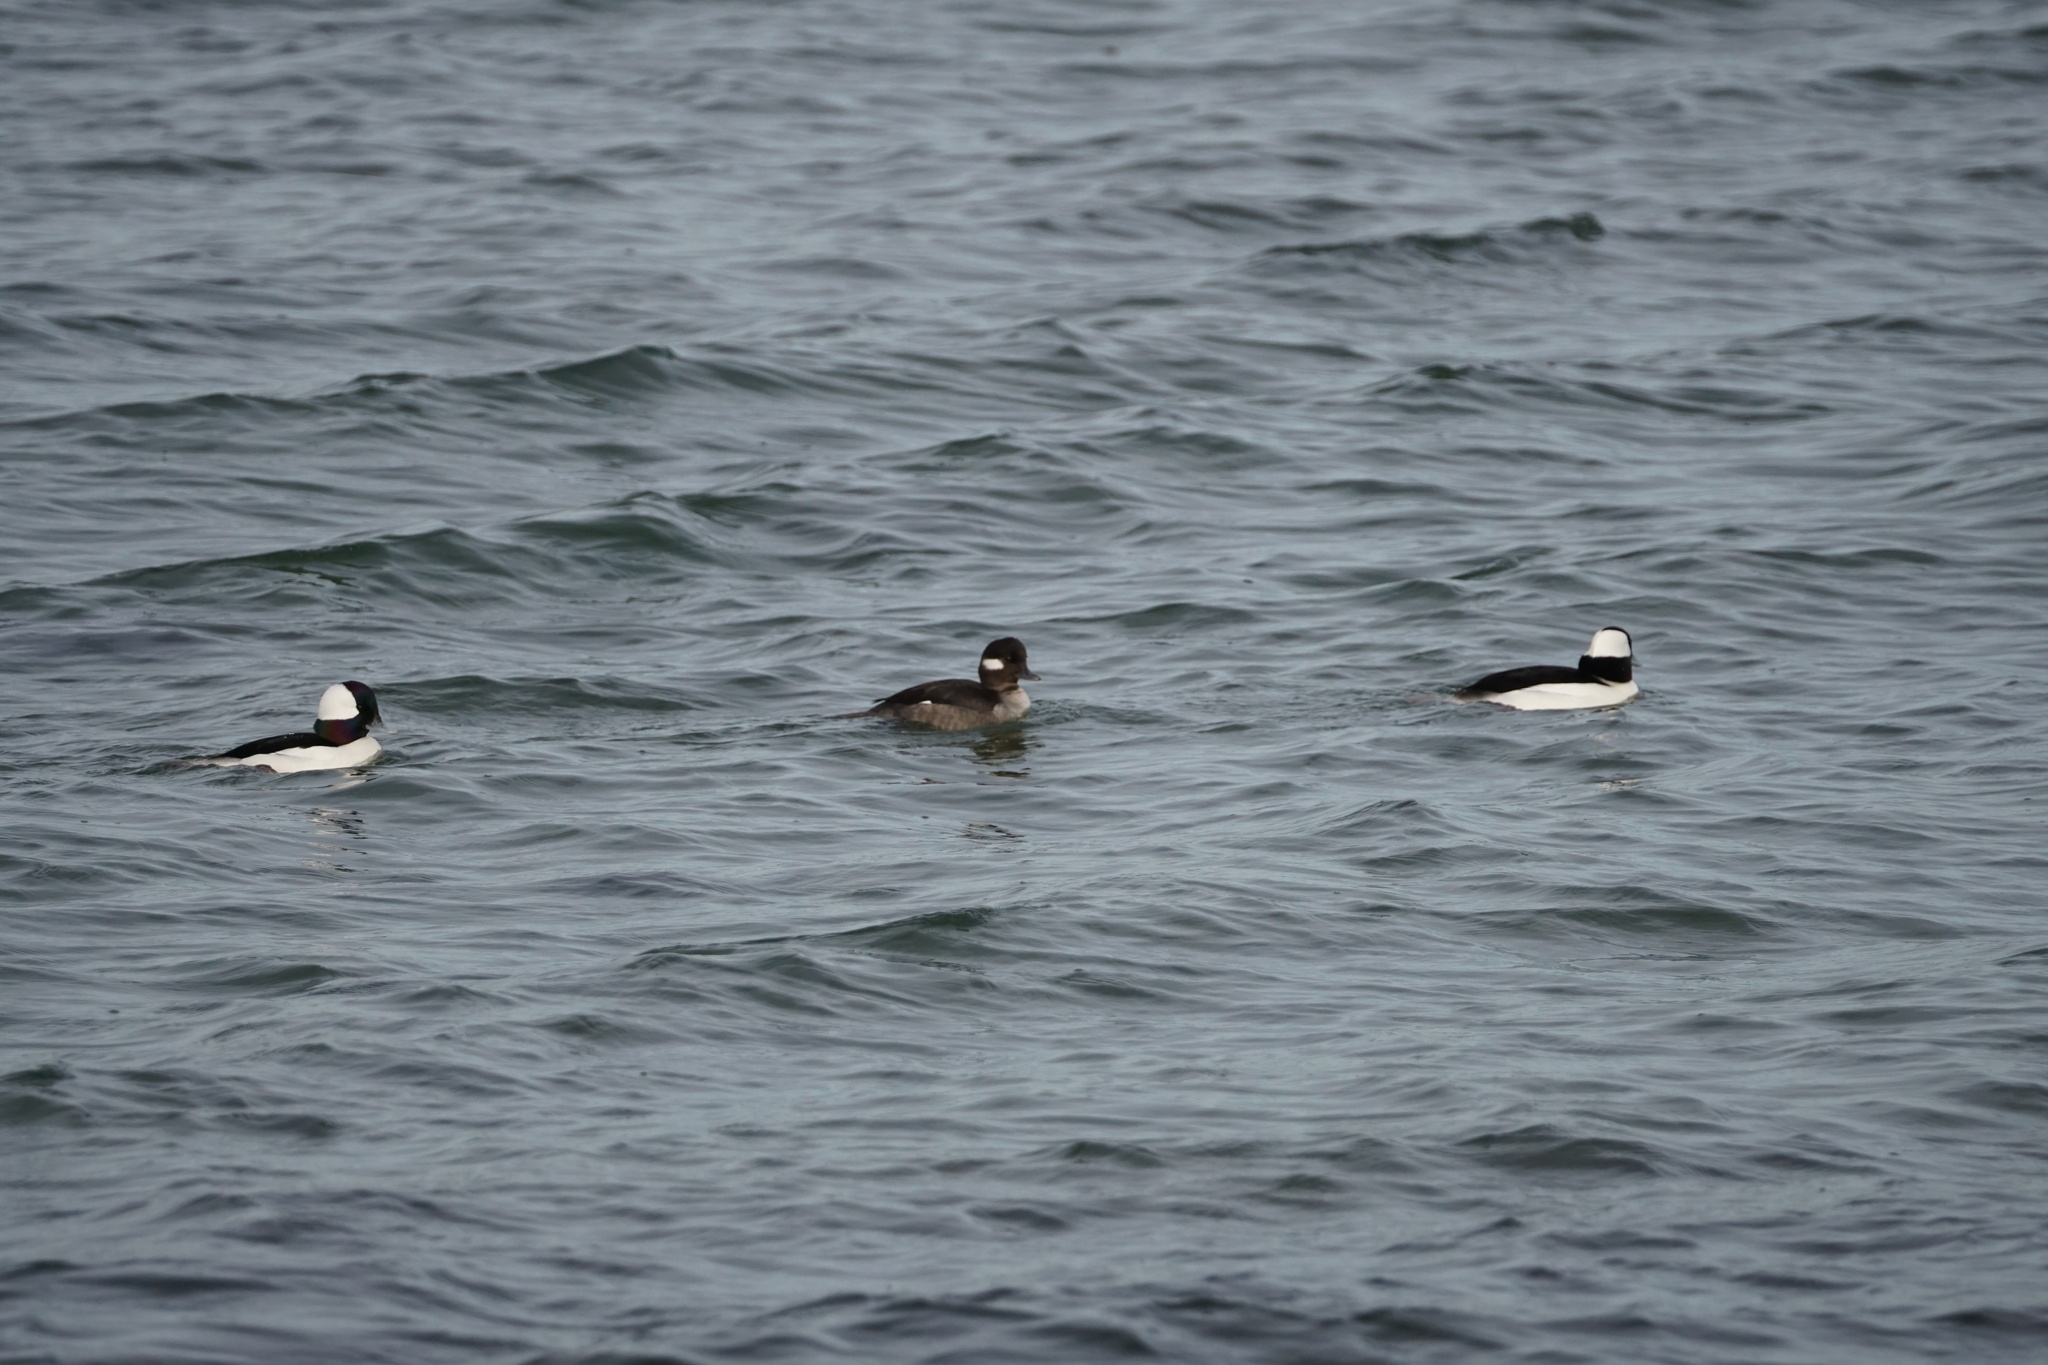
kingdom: Animalia
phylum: Chordata
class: Aves
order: Anseriformes
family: Anatidae
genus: Bucephala
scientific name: Bucephala albeola
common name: Bufflehead
